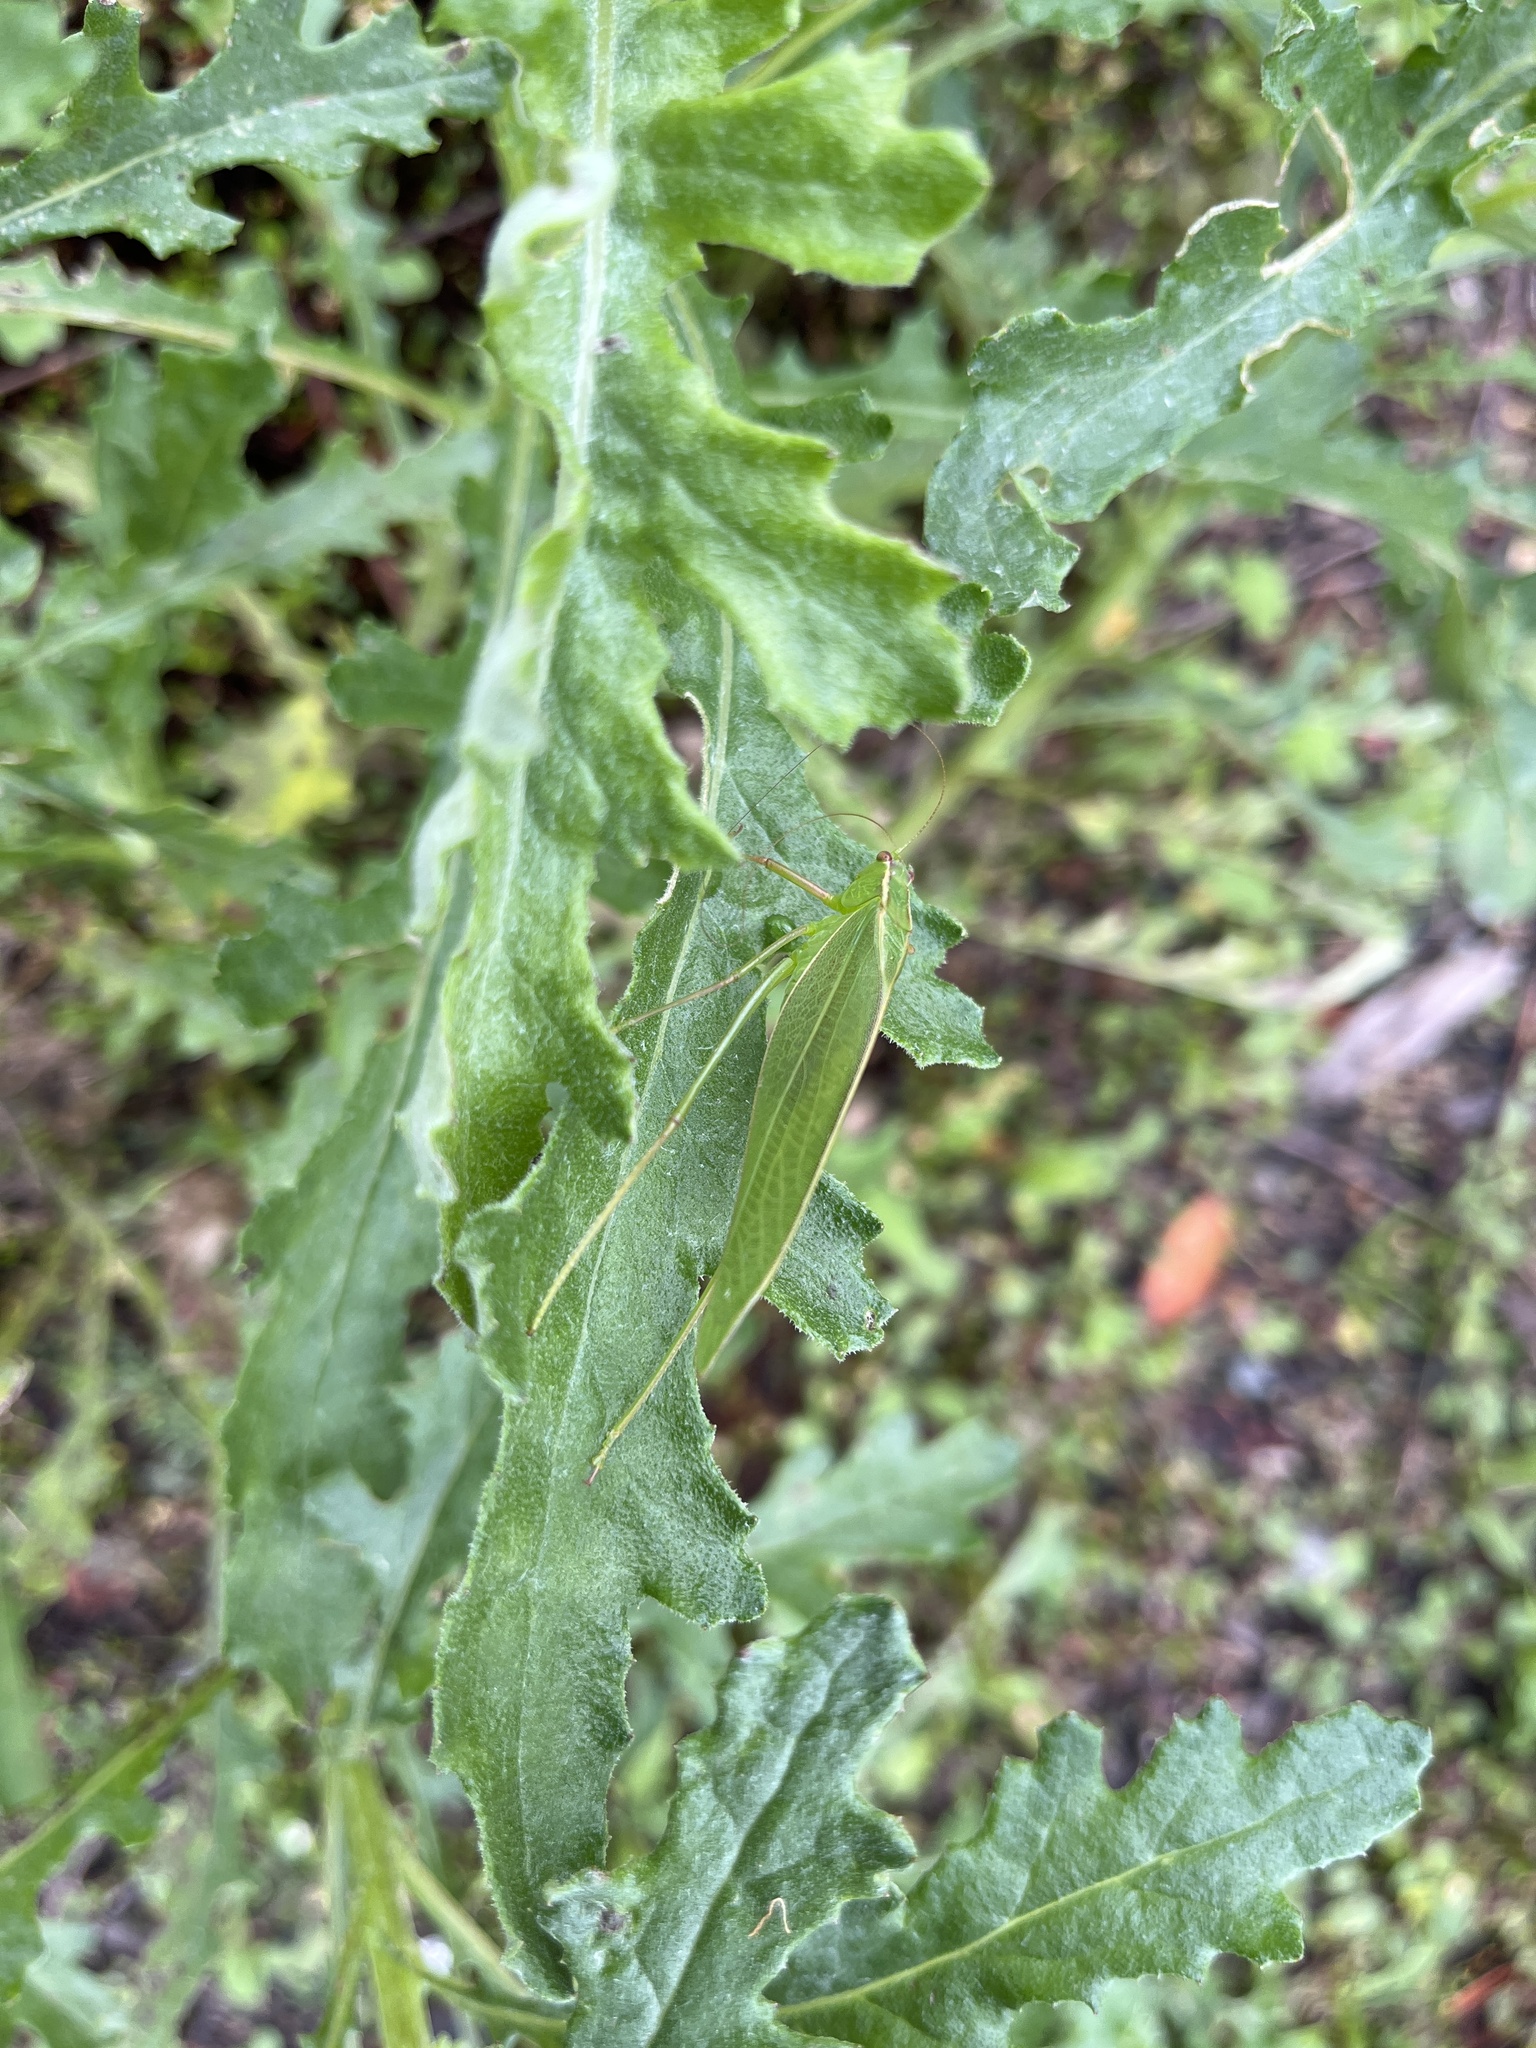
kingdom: Animalia
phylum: Arthropoda
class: Insecta
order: Orthoptera
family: Tettigoniidae
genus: Caedicia
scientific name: Caedicia simplex
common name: Common garden katydid
